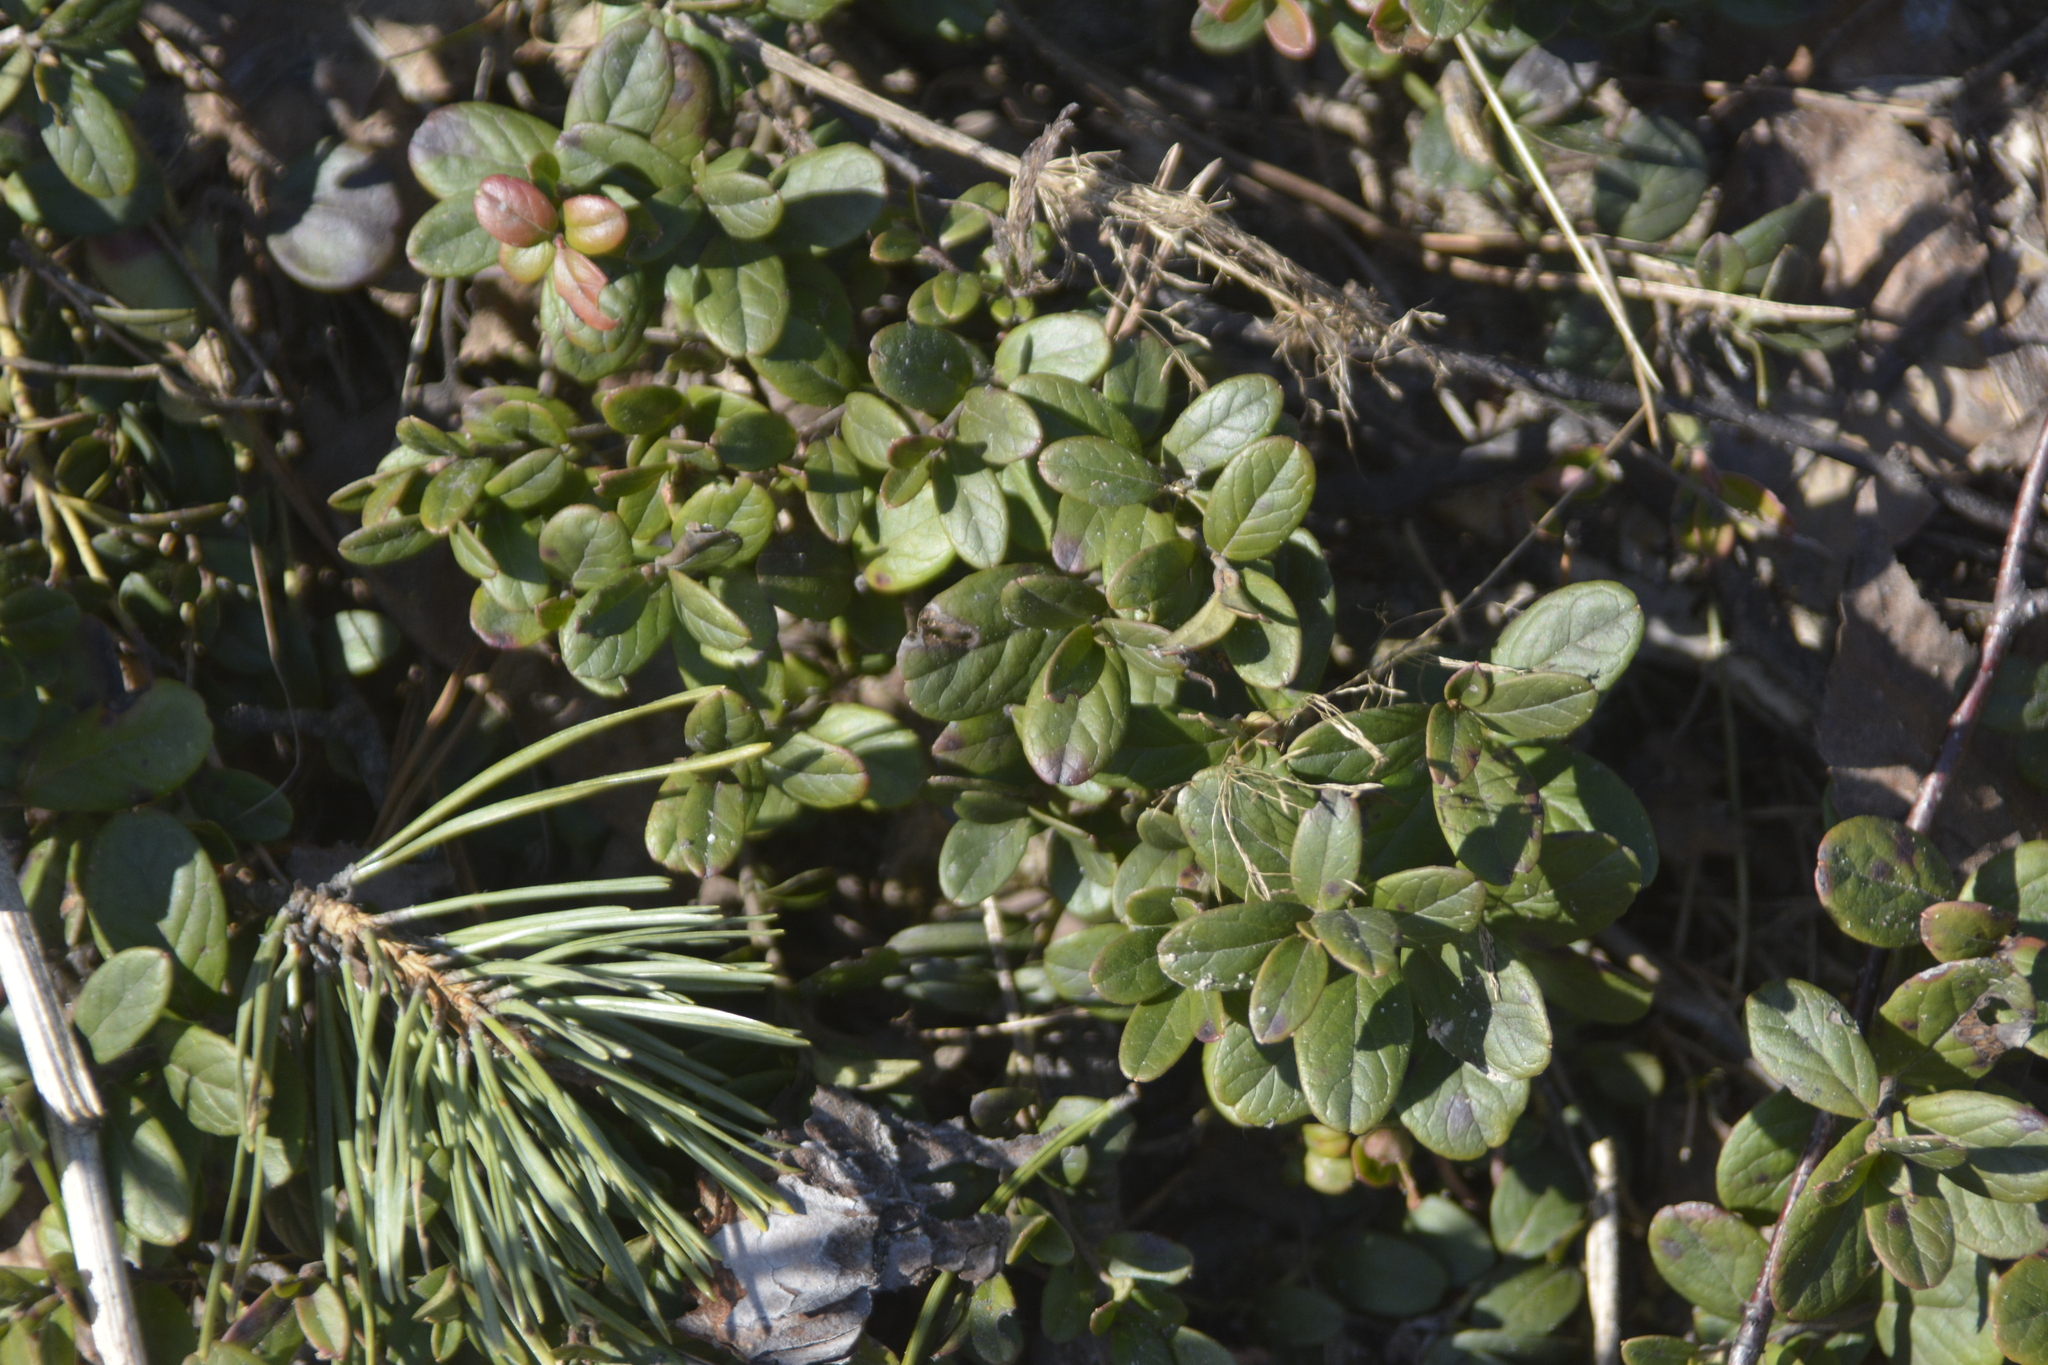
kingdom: Plantae
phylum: Tracheophyta
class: Magnoliopsida
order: Ericales
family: Ericaceae
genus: Vaccinium
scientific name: Vaccinium vitis-idaea
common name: Cowberry
